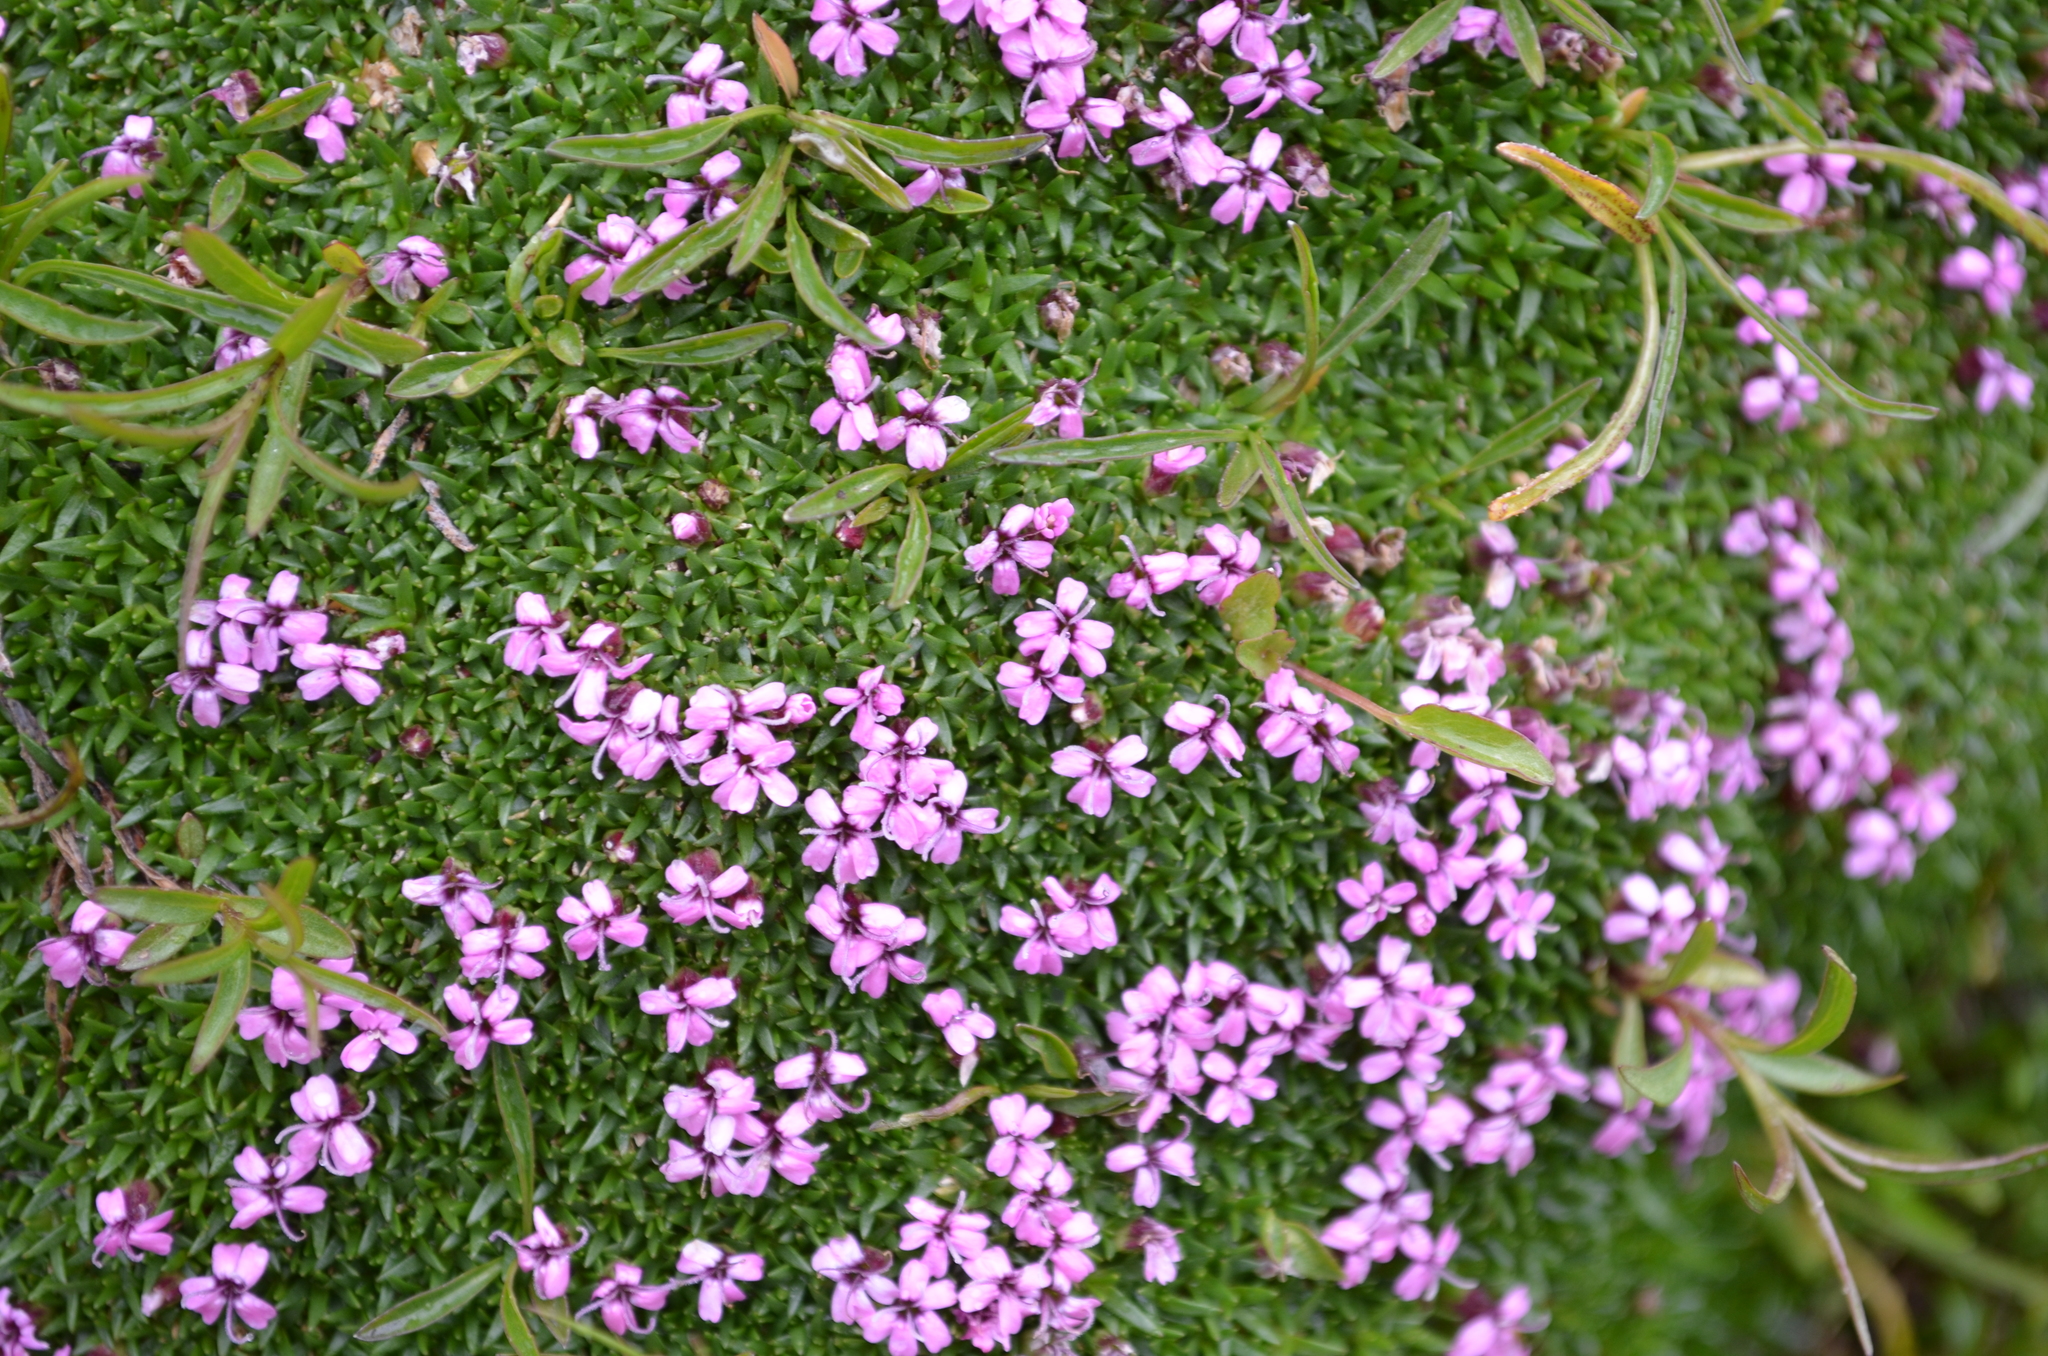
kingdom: Plantae
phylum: Tracheophyta
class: Magnoliopsida
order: Caryophyllales
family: Caryophyllaceae
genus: Silene
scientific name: Silene acaulis
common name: Moss campion
